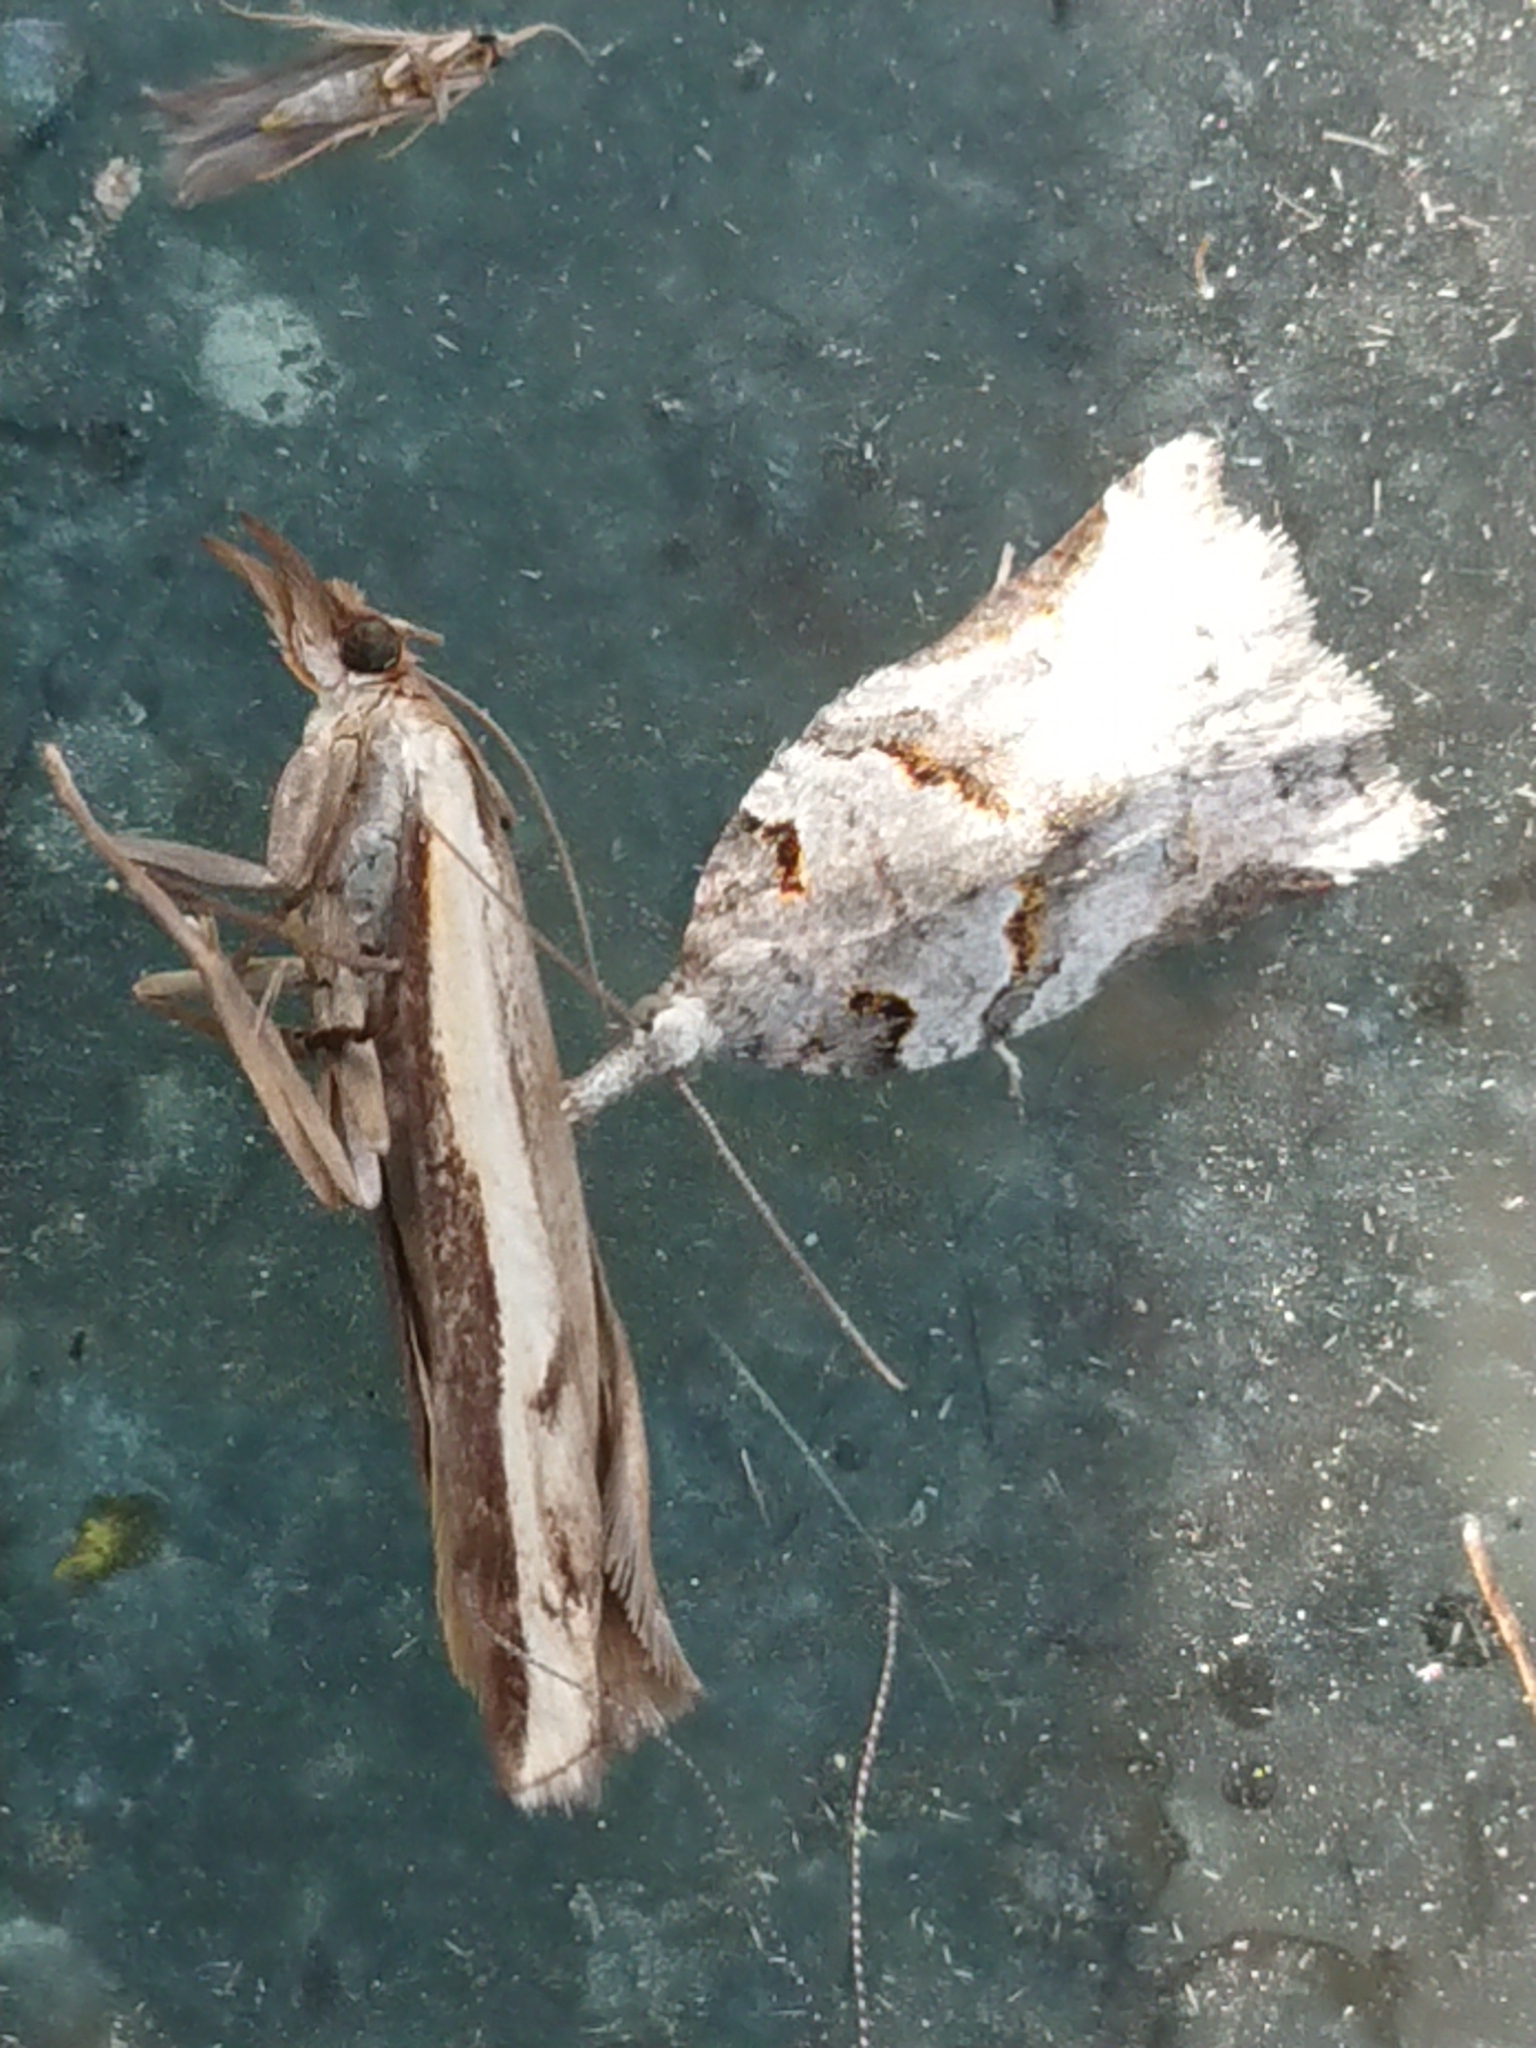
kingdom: Animalia
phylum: Arthropoda
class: Insecta
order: Lepidoptera
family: Tortricidae
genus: Harmologa
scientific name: Harmologa amplexana
